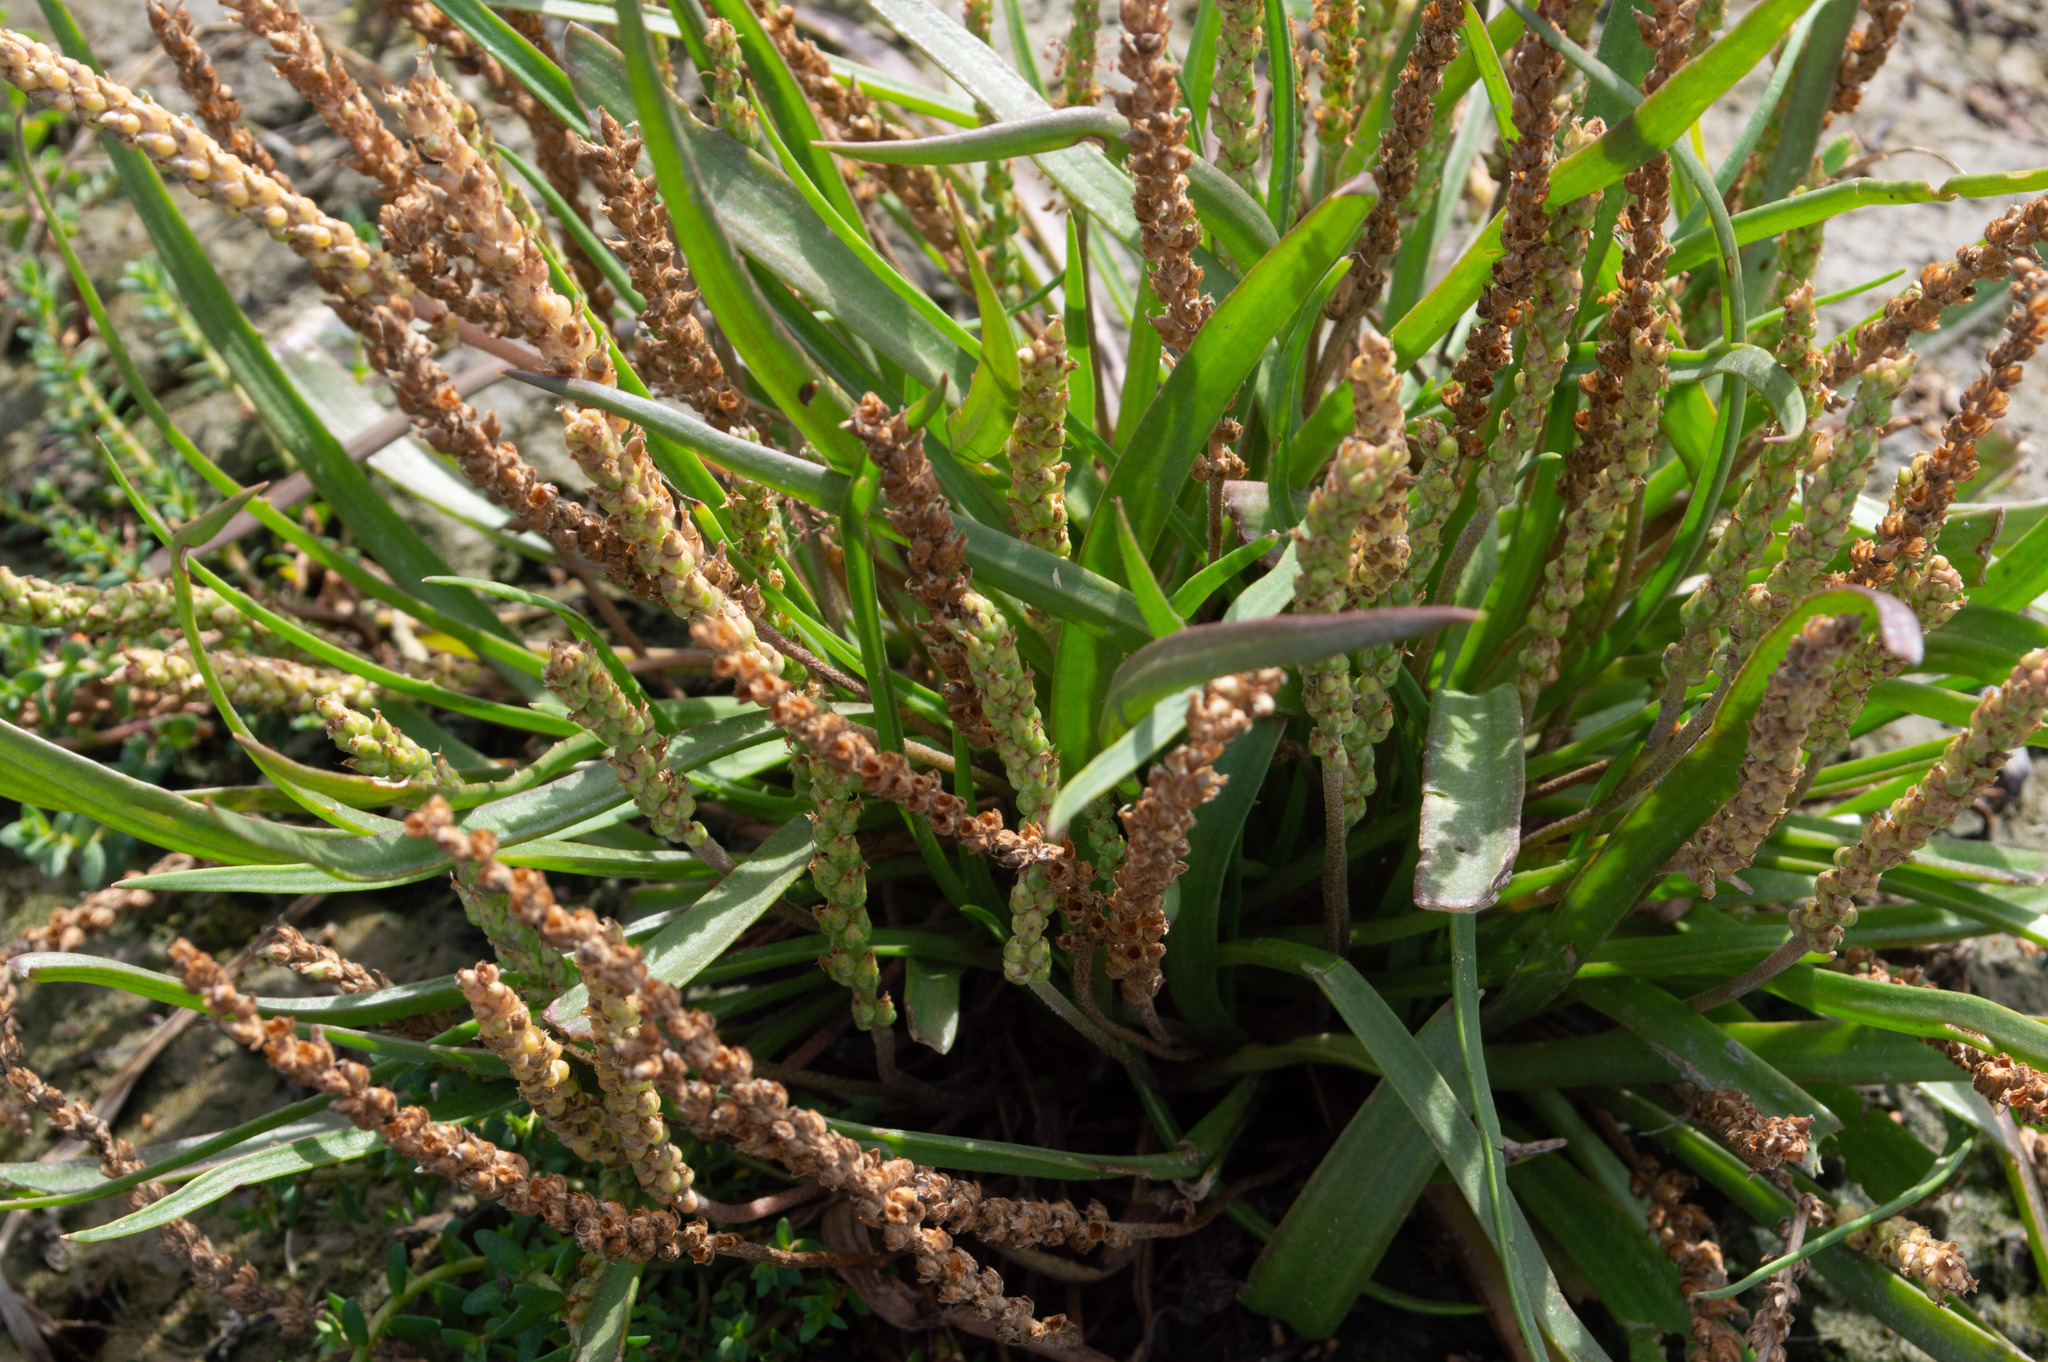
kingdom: Plantae
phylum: Tracheophyta
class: Magnoliopsida
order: Lamiales
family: Plantaginaceae
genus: Plantago
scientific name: Plantago maritima
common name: Sea plantain
